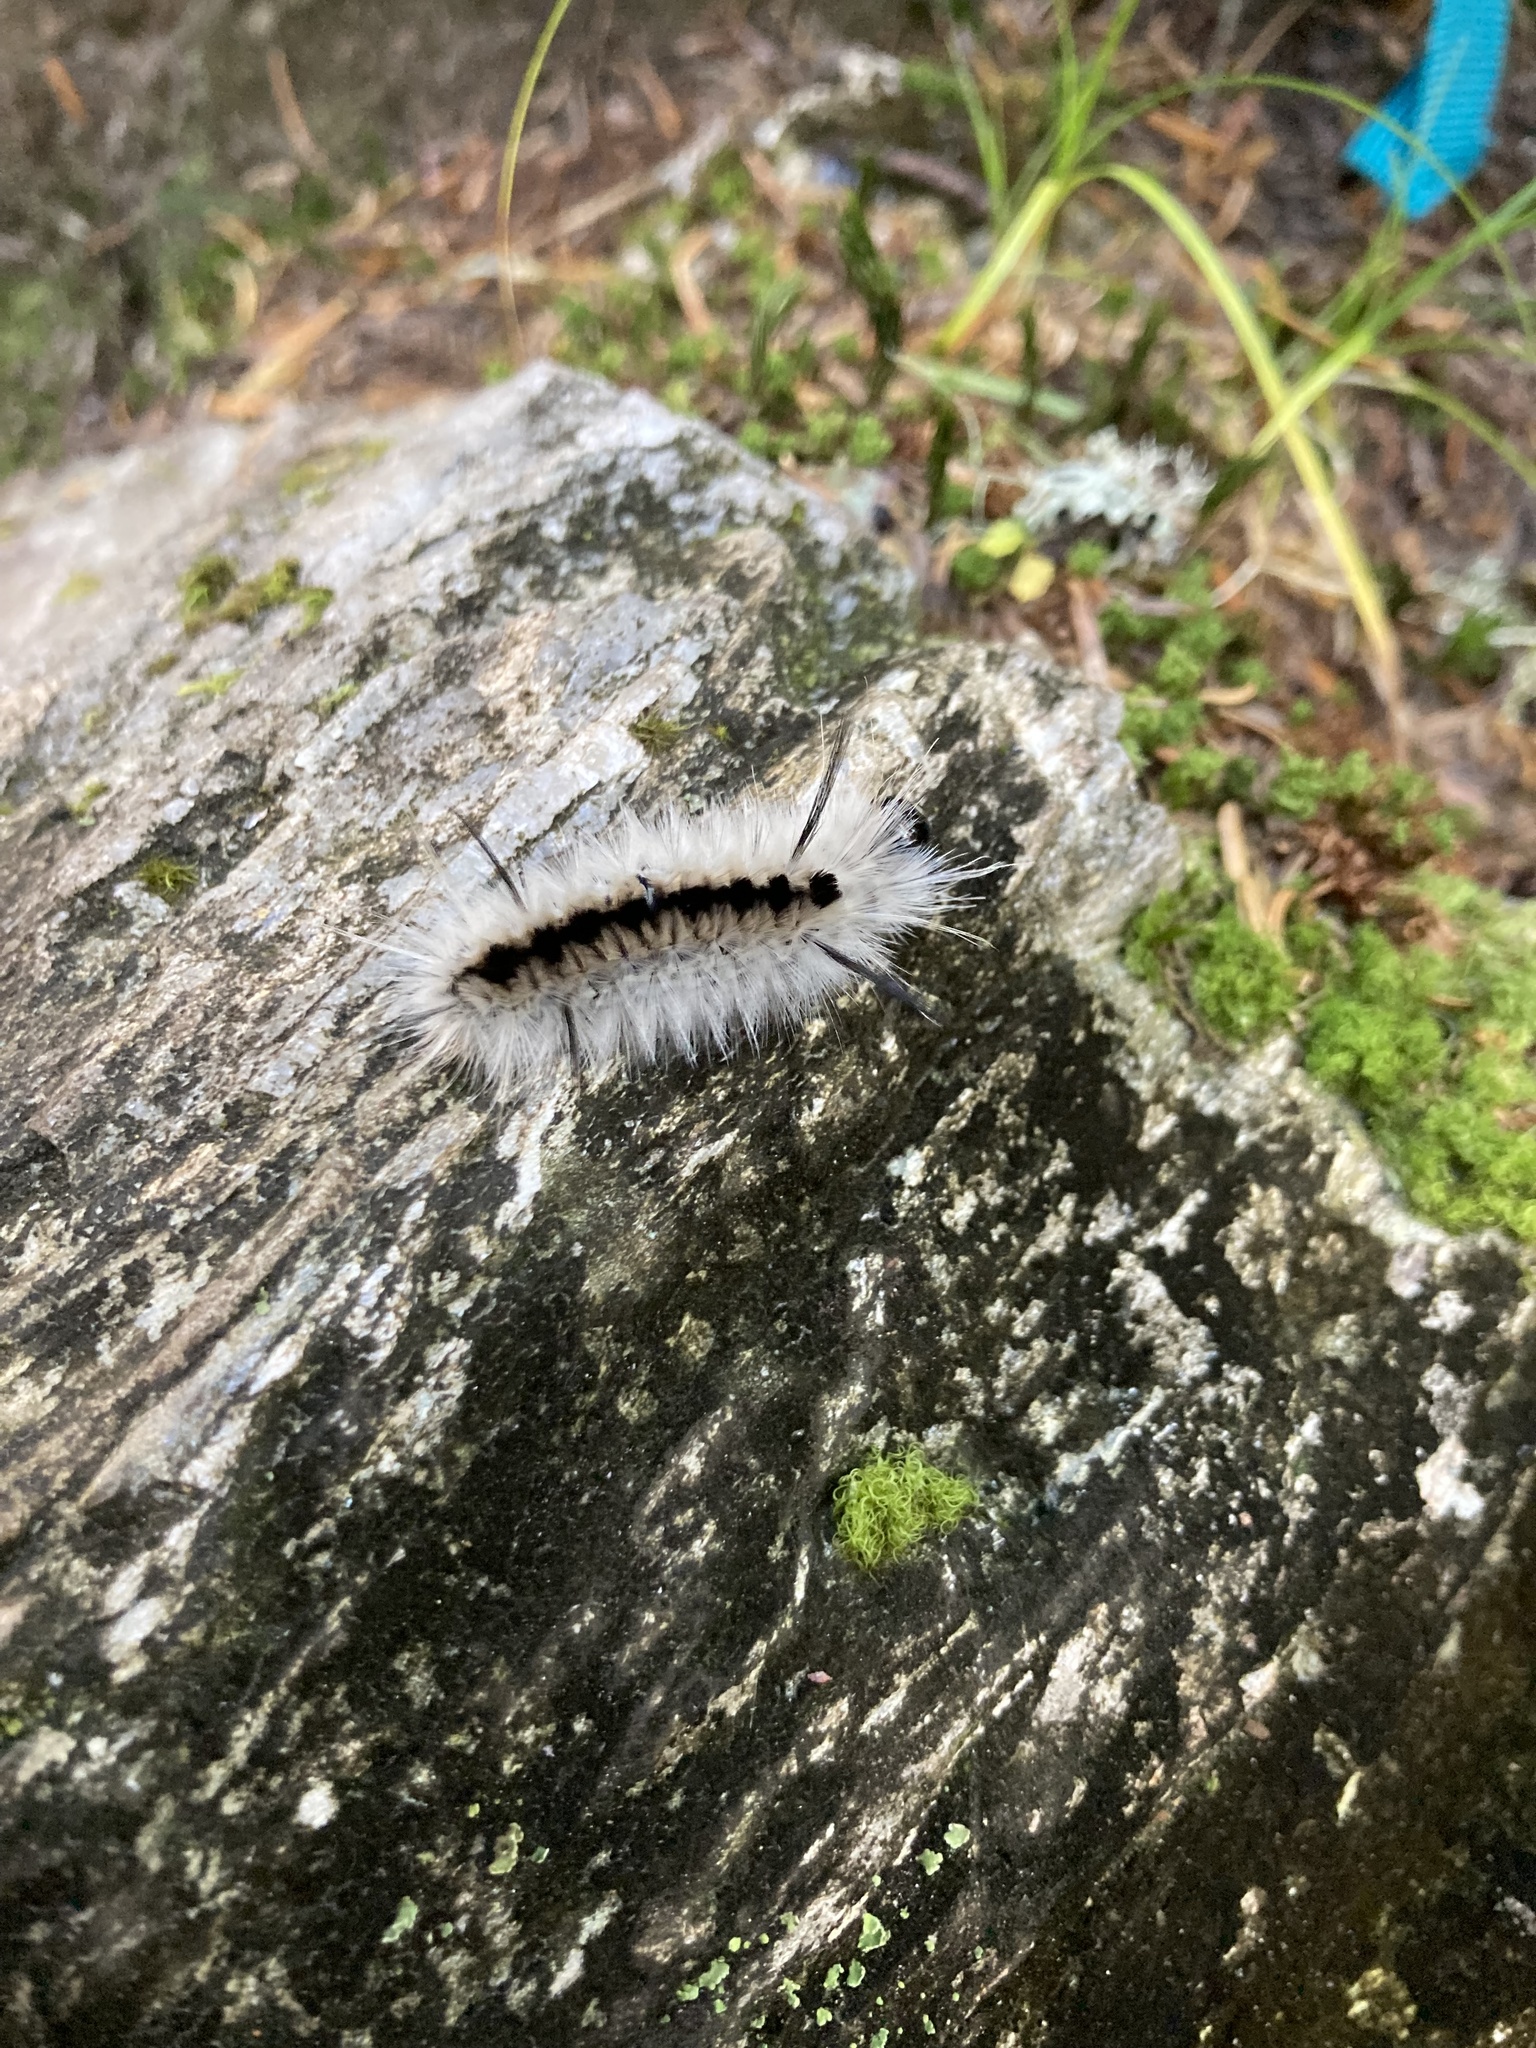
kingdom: Animalia
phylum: Arthropoda
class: Insecta
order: Lepidoptera
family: Erebidae
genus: Lophocampa
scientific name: Lophocampa caryae
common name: Hickory tussock moth
